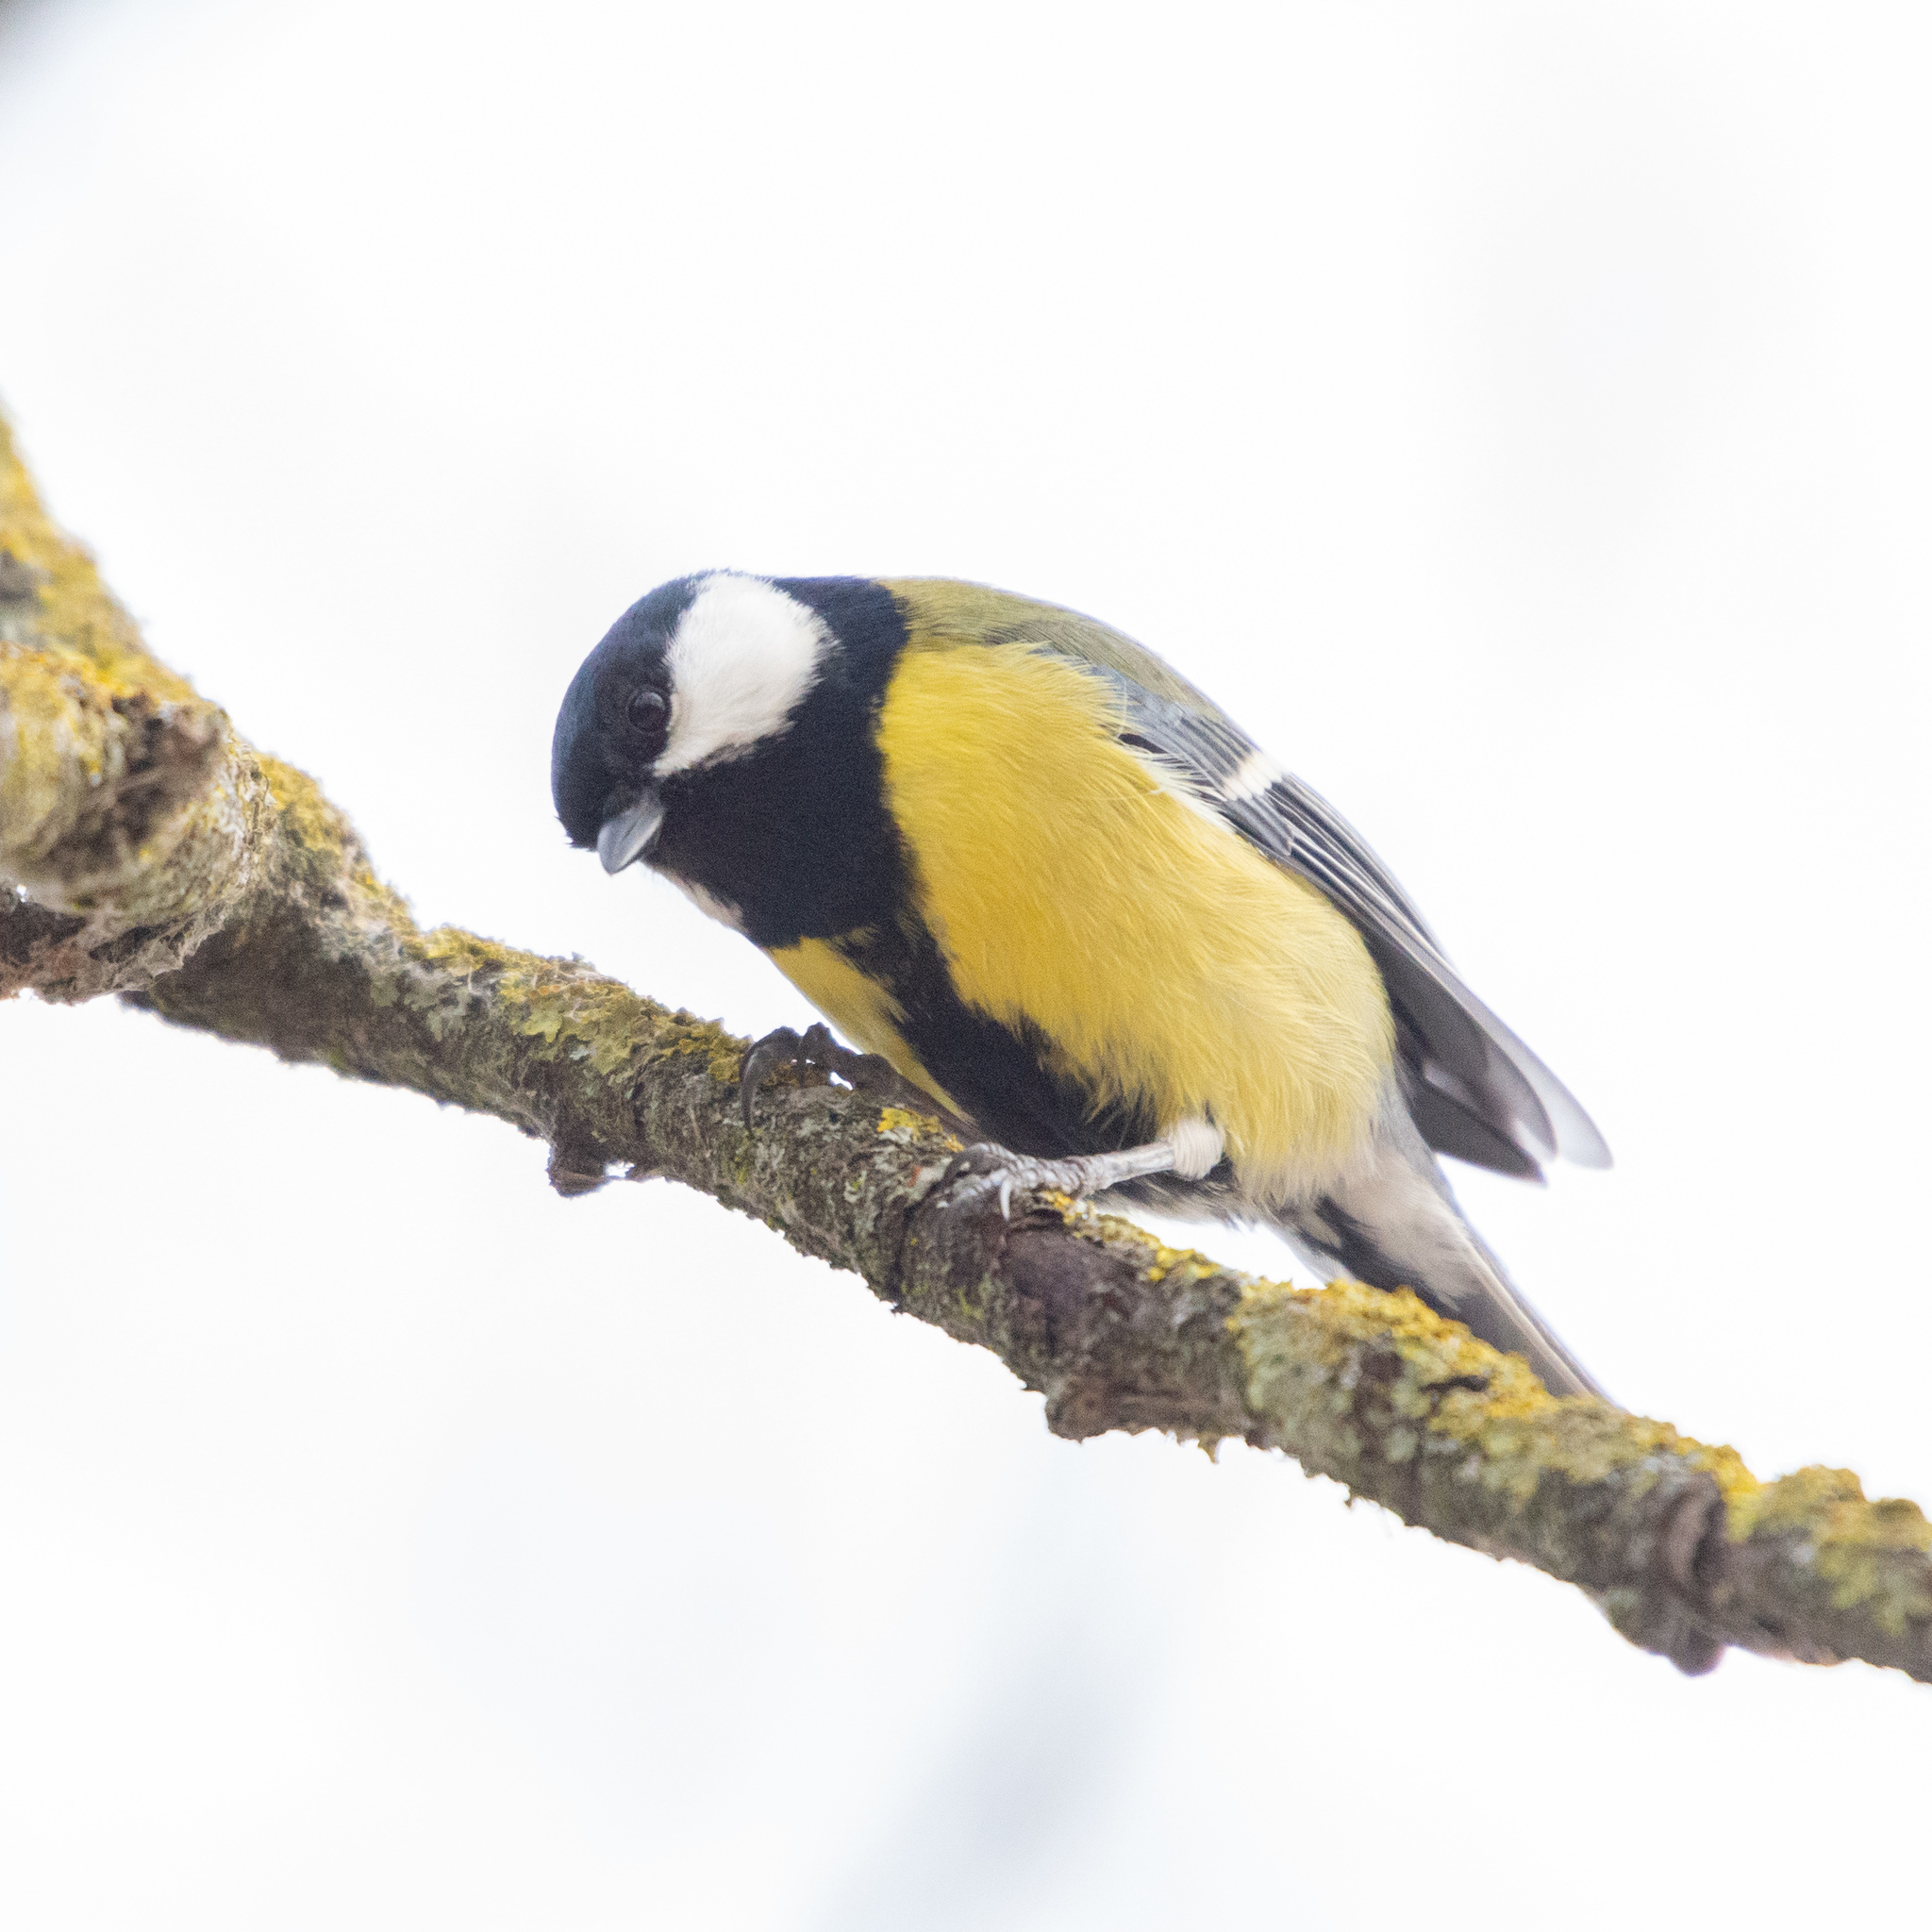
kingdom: Animalia
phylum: Chordata
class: Aves
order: Passeriformes
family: Paridae
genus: Parus
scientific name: Parus major
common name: Great tit
